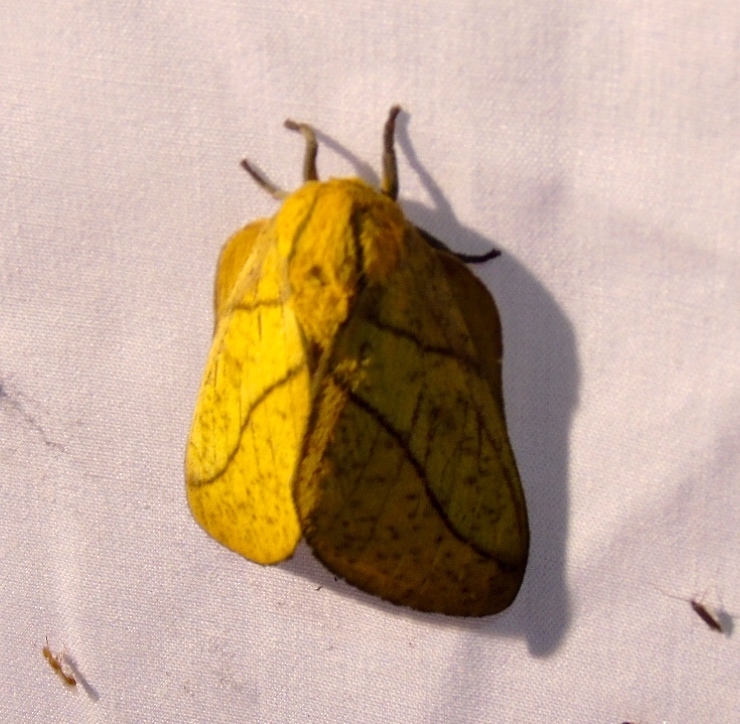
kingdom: Animalia
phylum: Arthropoda
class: Insecta
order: Lepidoptera
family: Saturniidae
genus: Syssphinx
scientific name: Syssphinx
